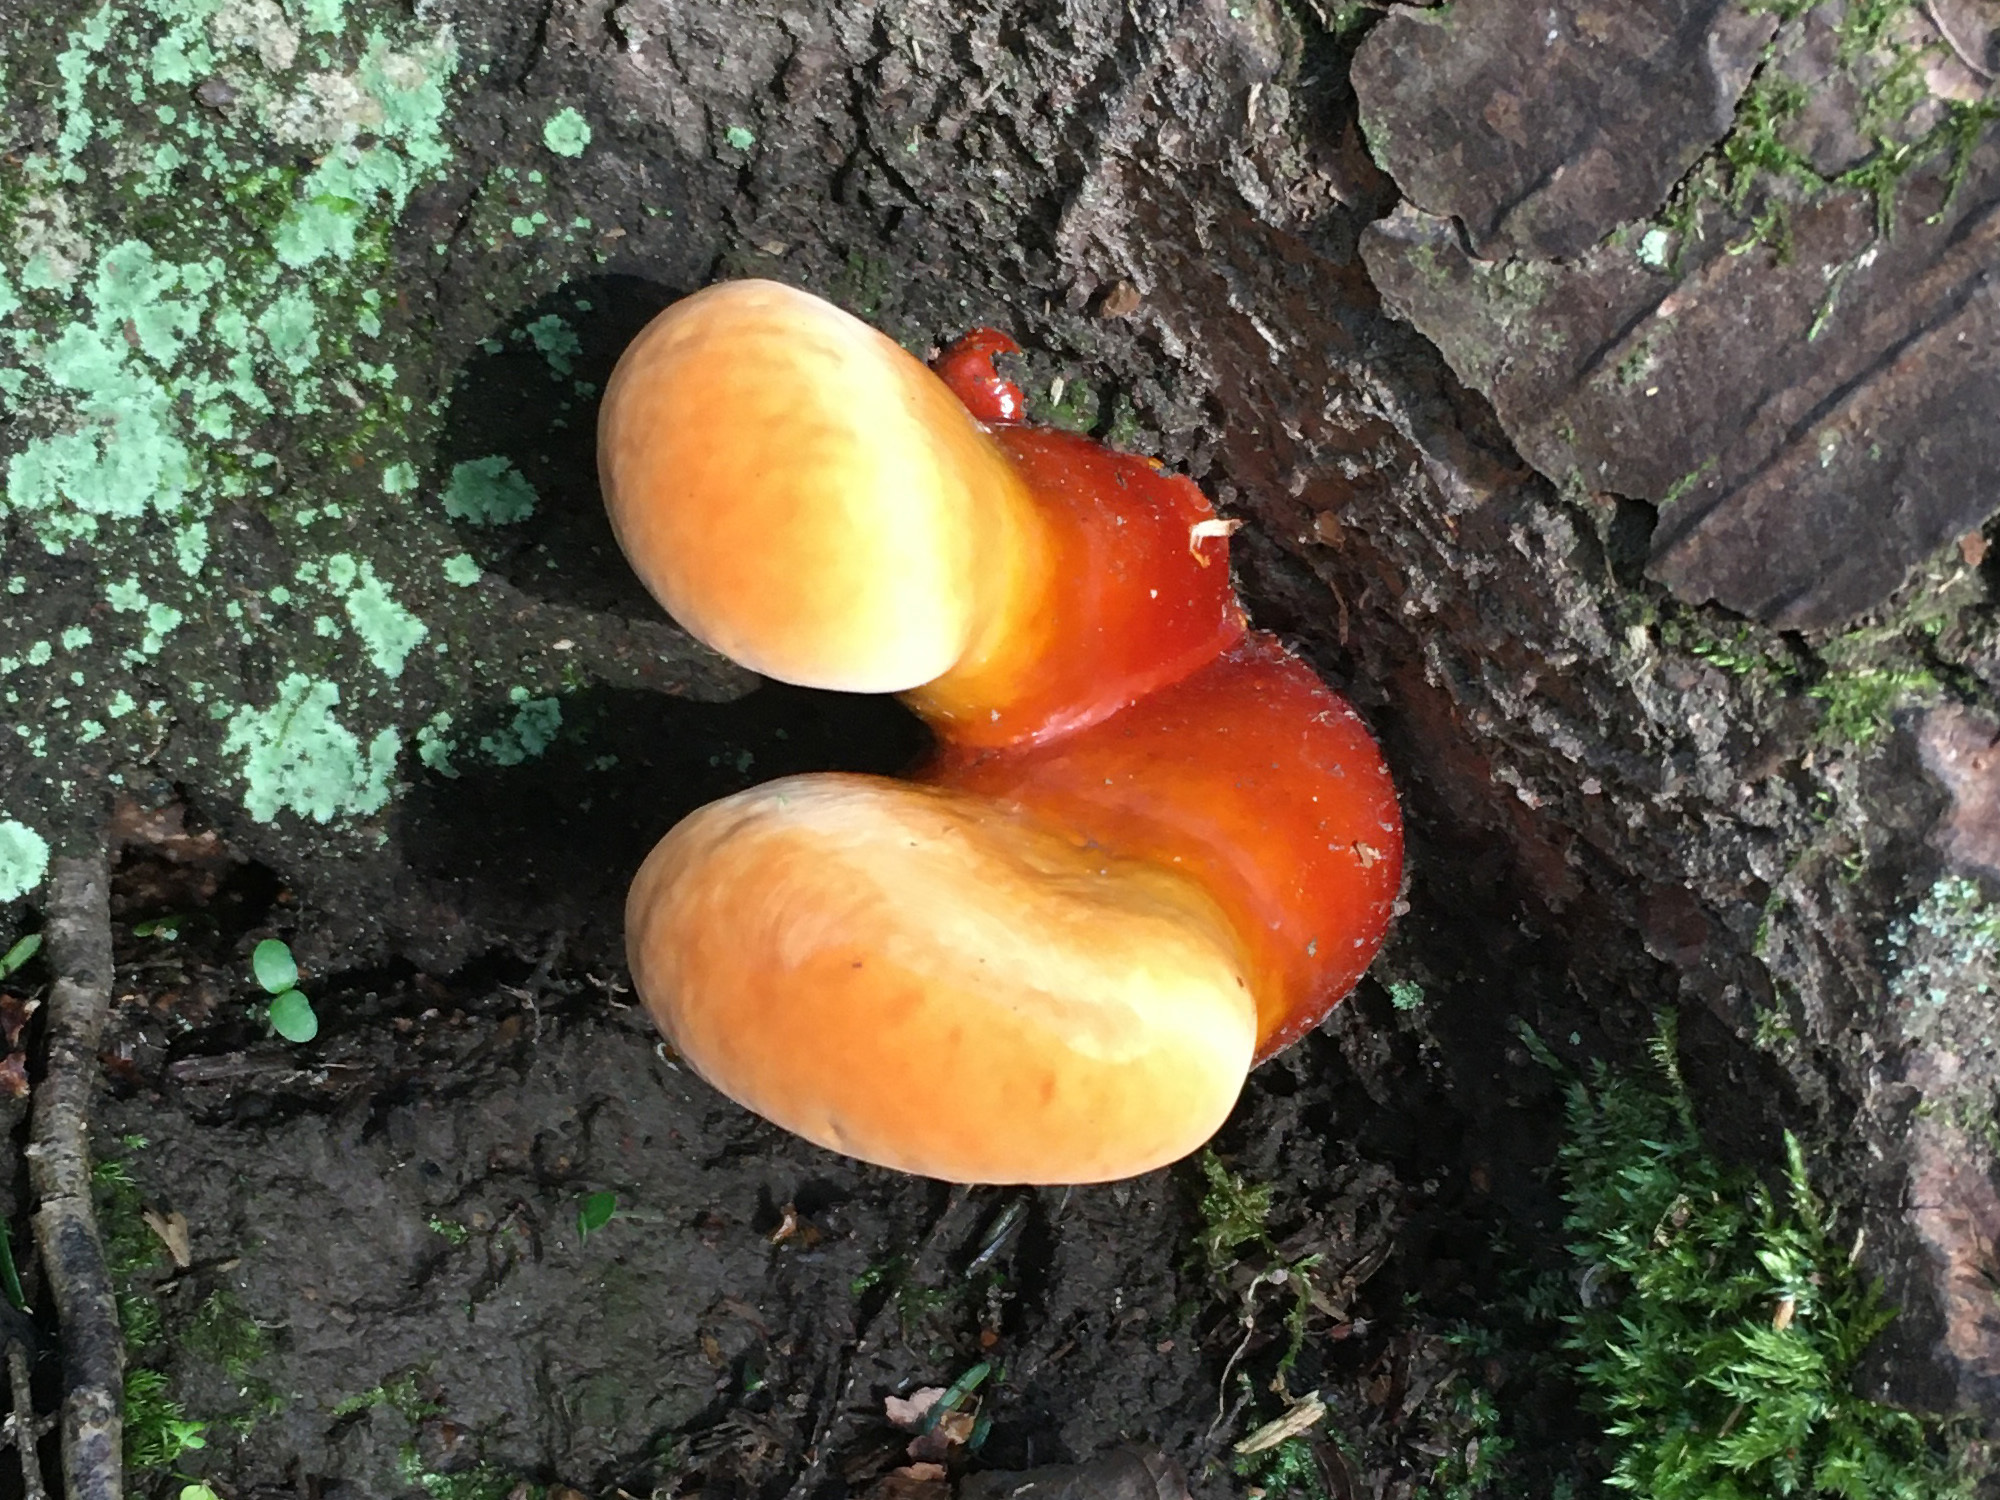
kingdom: Fungi
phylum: Basidiomycota
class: Agaricomycetes
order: Polyporales
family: Polyporaceae
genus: Ganoderma
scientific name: Ganoderma tsugae
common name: Hemlock varnish shelf
